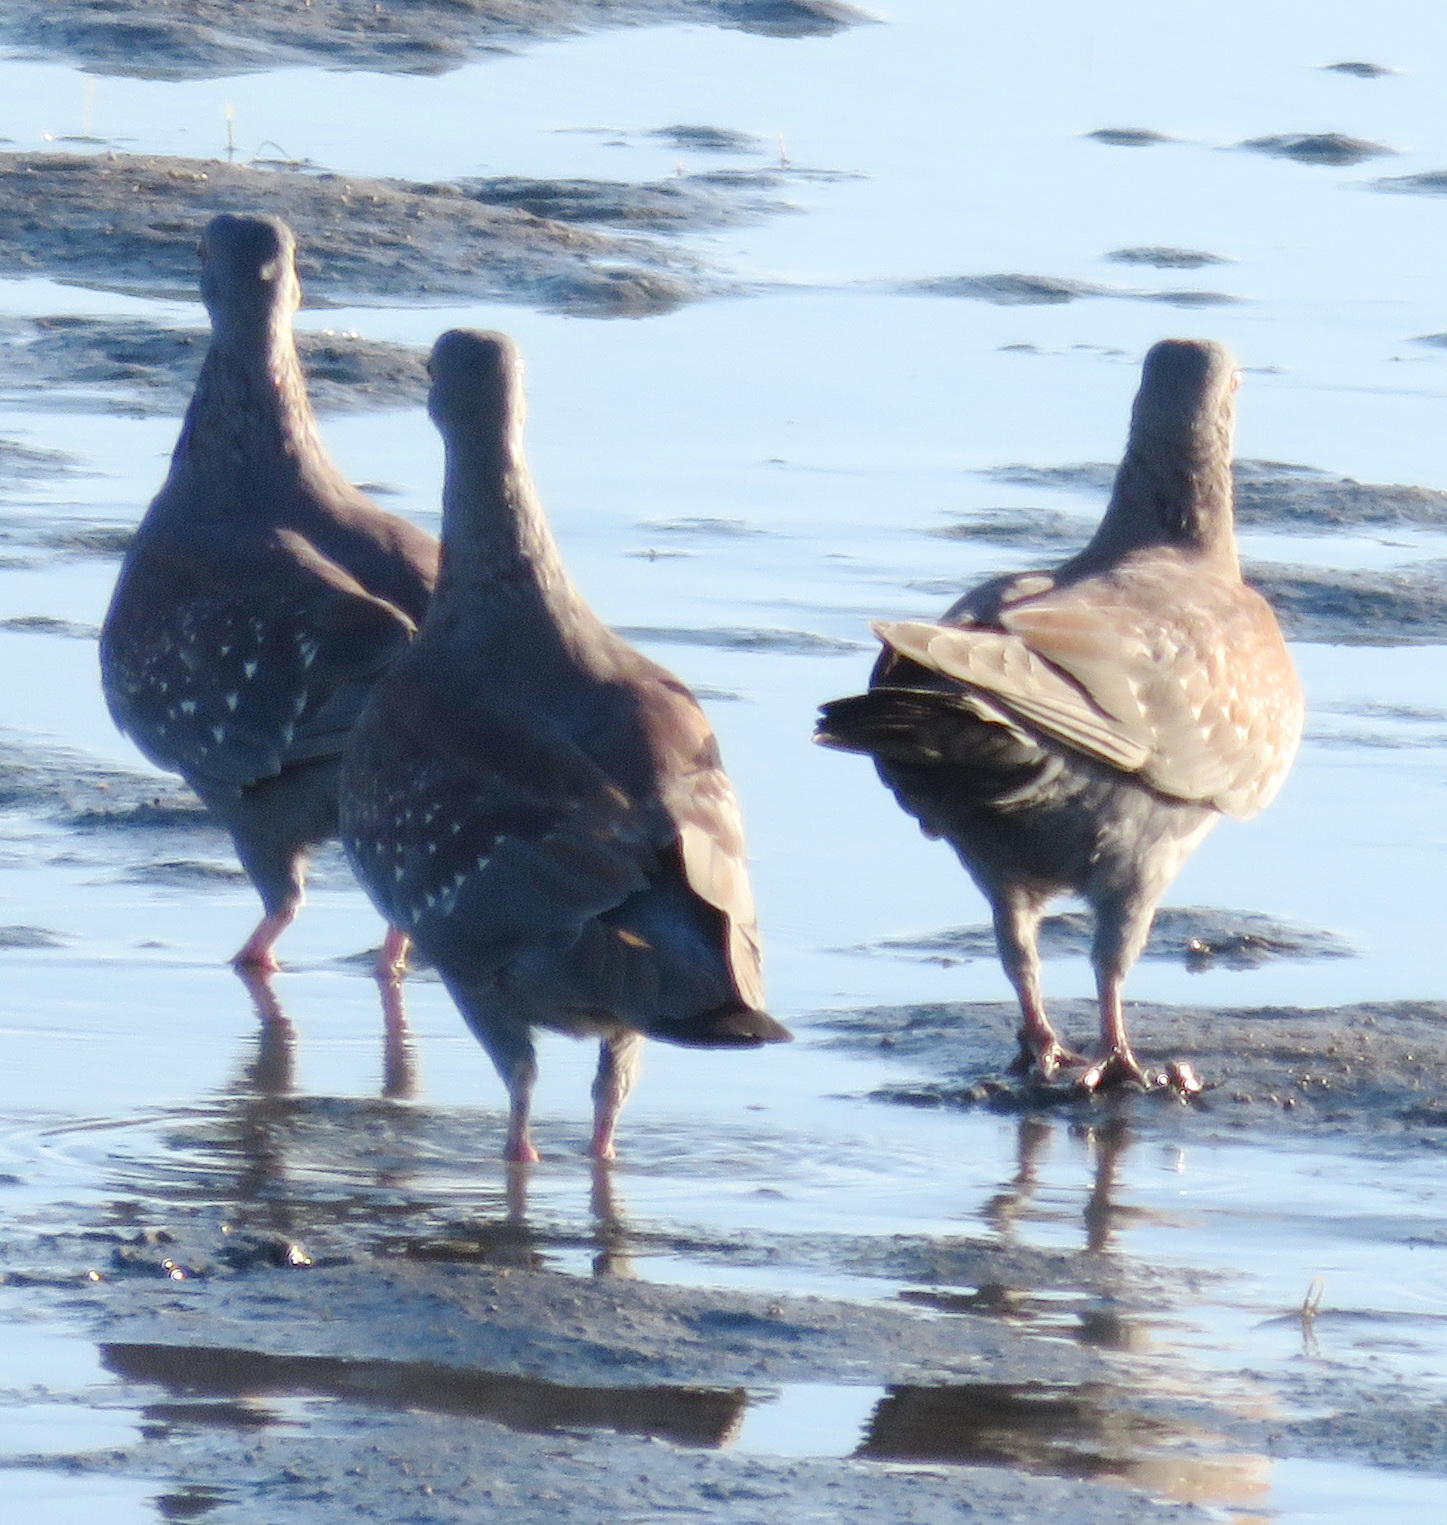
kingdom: Animalia
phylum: Chordata
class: Aves
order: Columbiformes
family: Columbidae
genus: Columba
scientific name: Columba guinea
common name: Speckled pigeon
